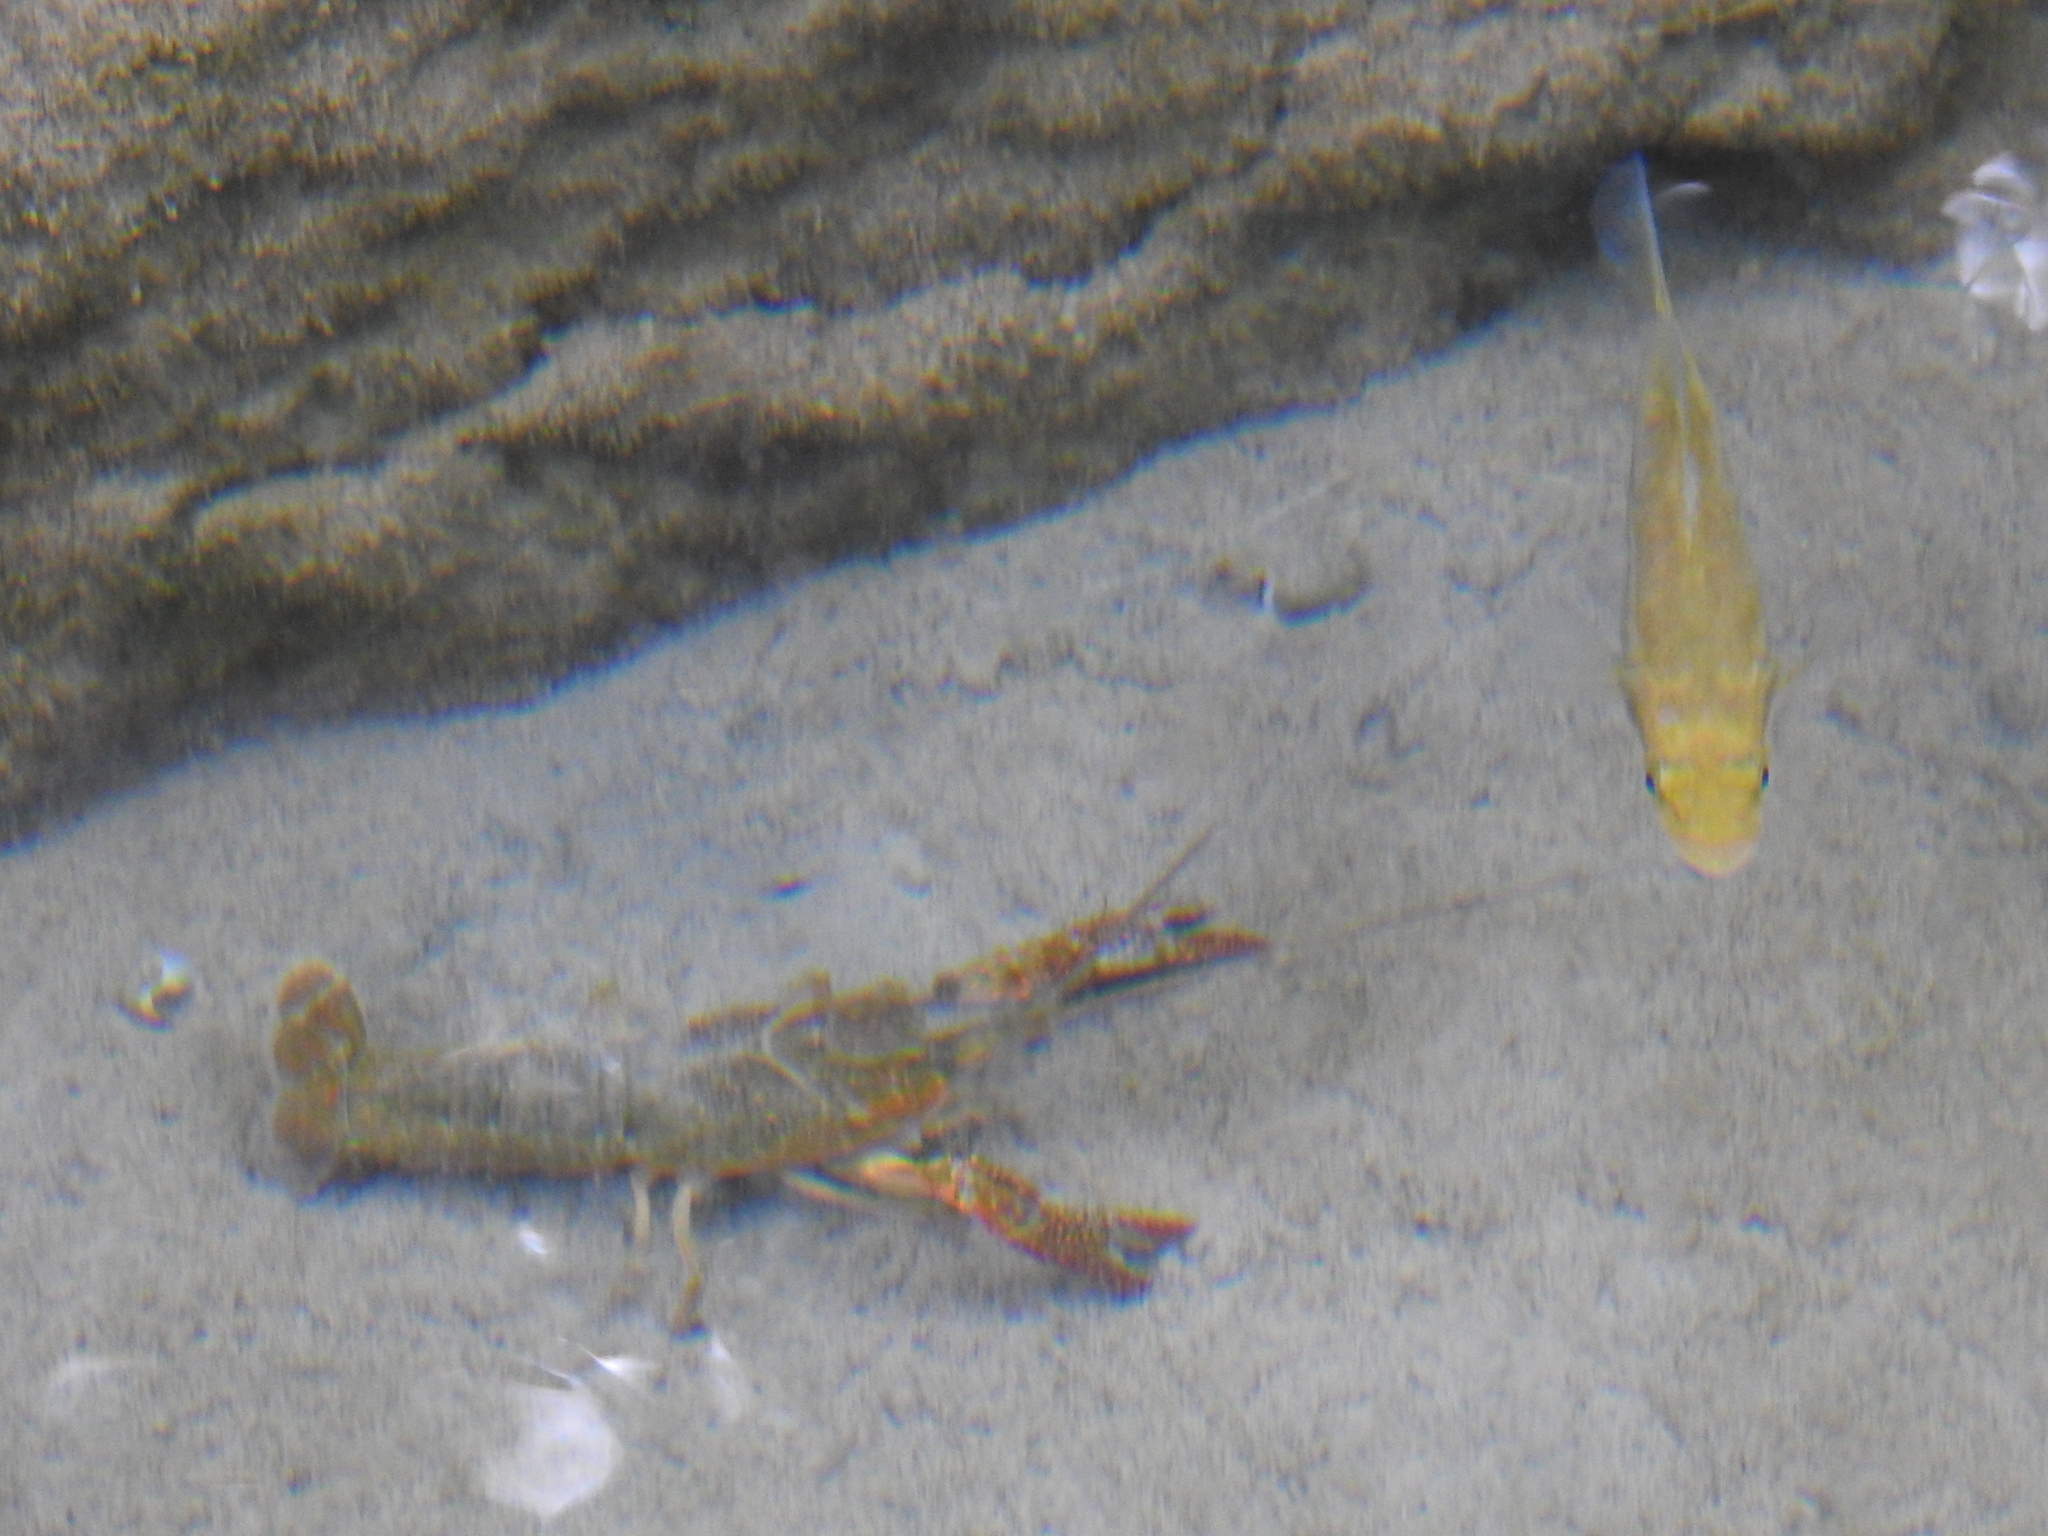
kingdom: Animalia
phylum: Arthropoda
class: Malacostraca
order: Decapoda
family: Cambaridae
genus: Procambarus
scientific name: Procambarus clarkii
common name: Red swamp crayfish
